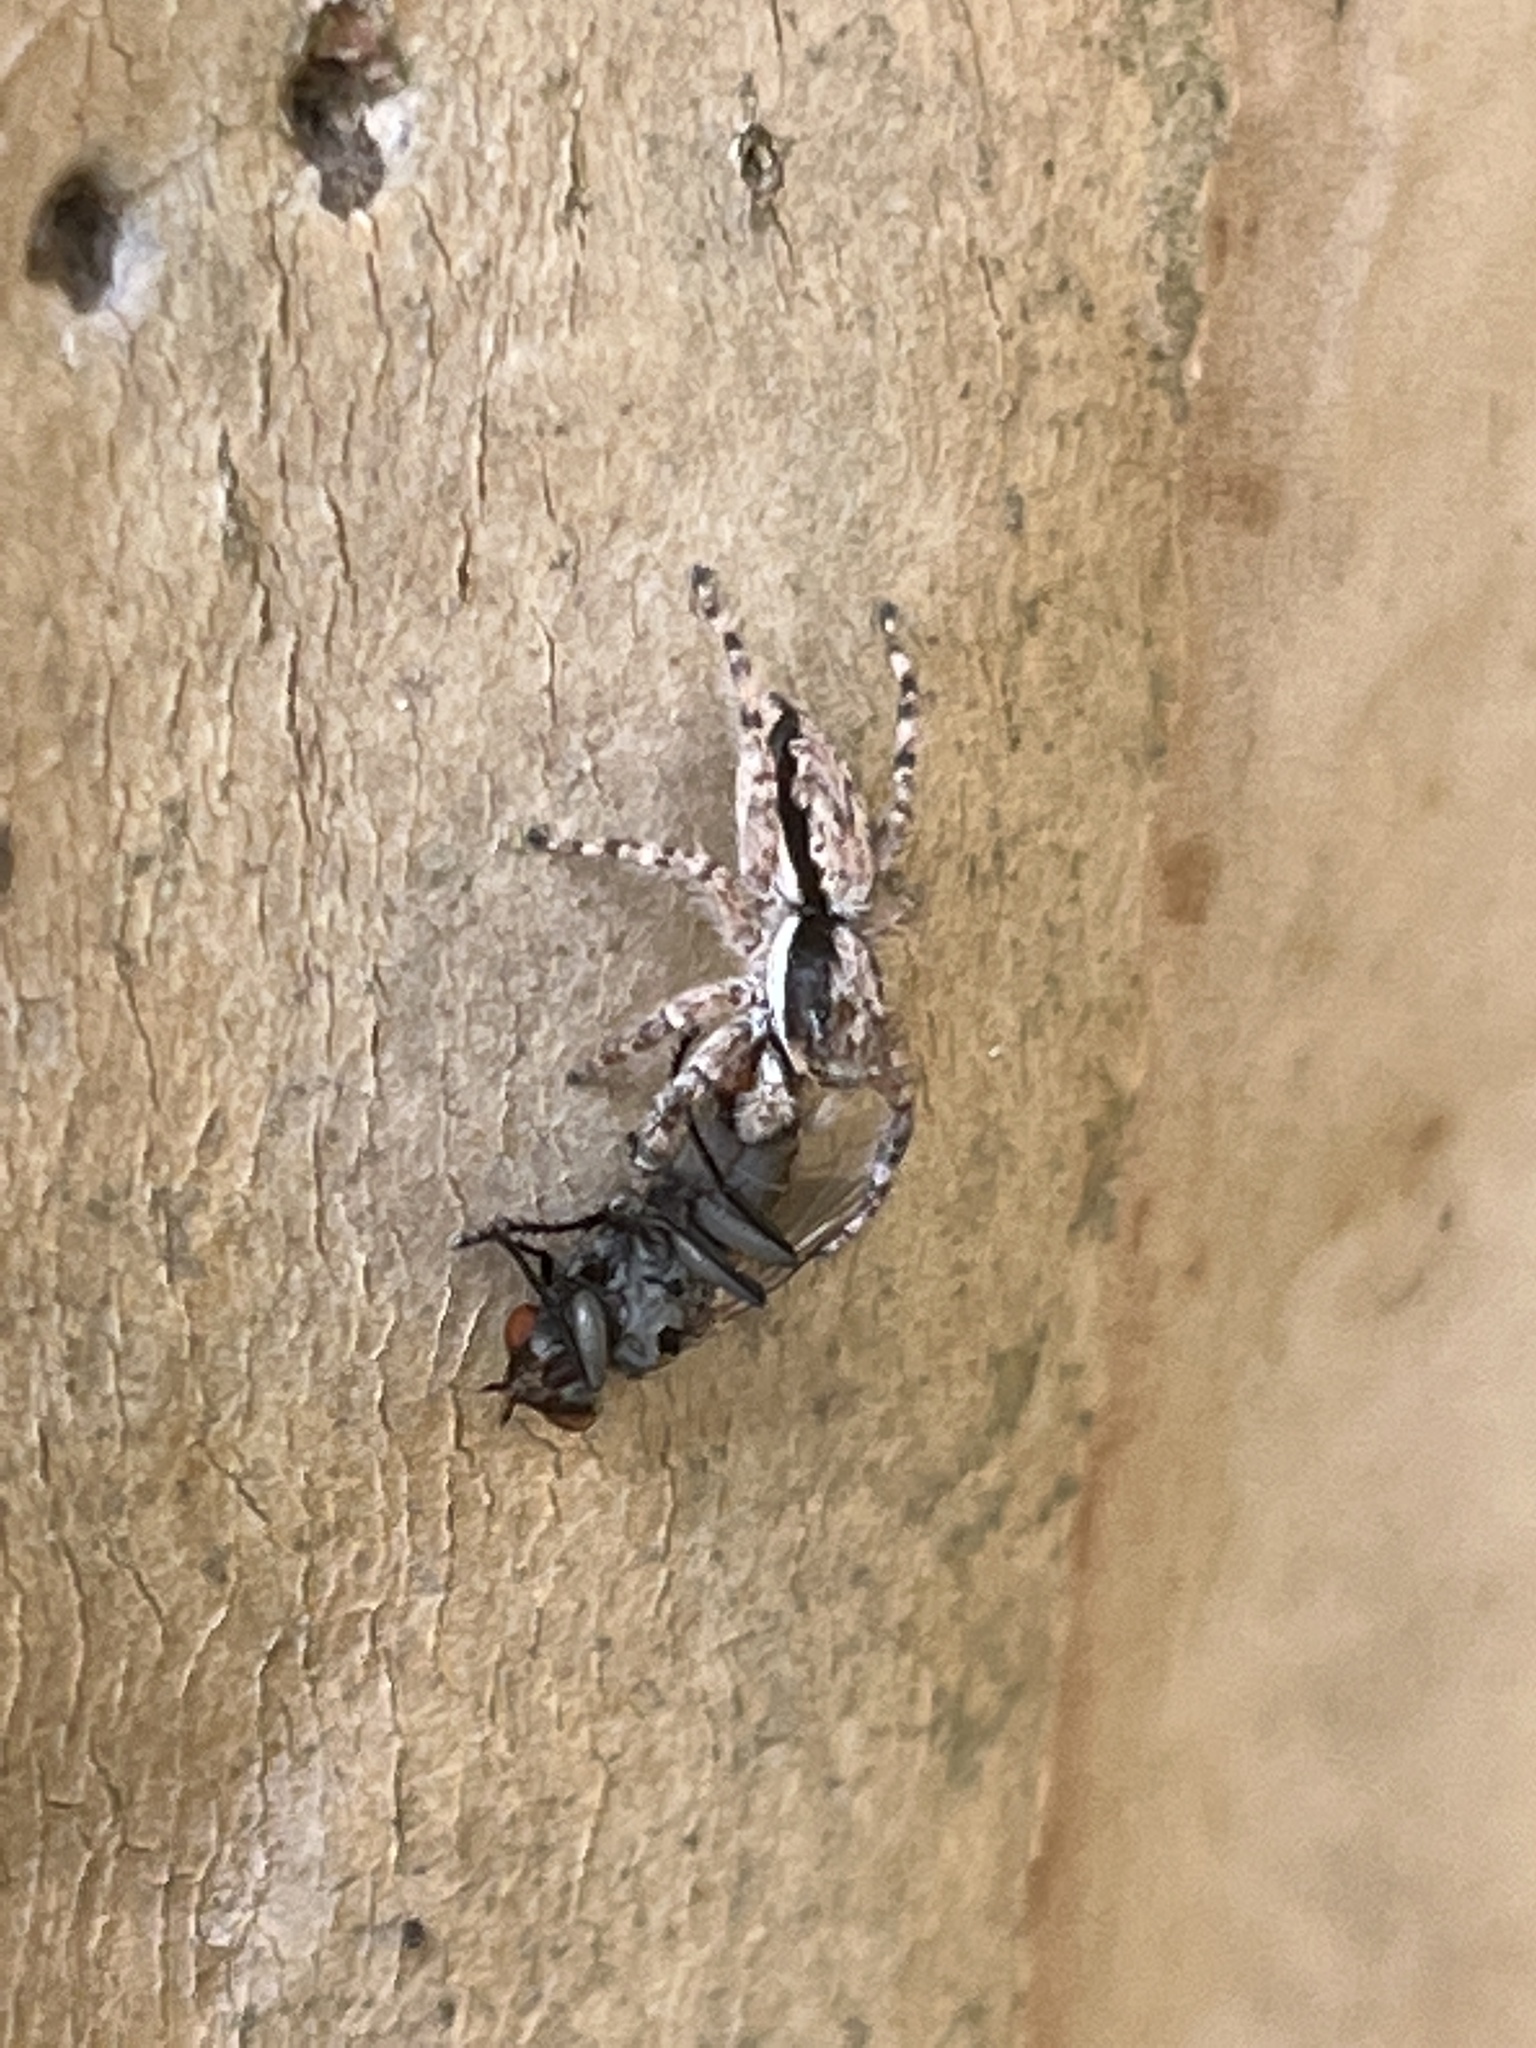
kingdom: Animalia
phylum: Arthropoda
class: Arachnida
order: Araneae
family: Salticidae
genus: Menemerus
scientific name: Menemerus bivittatus
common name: Gray wall jumper
